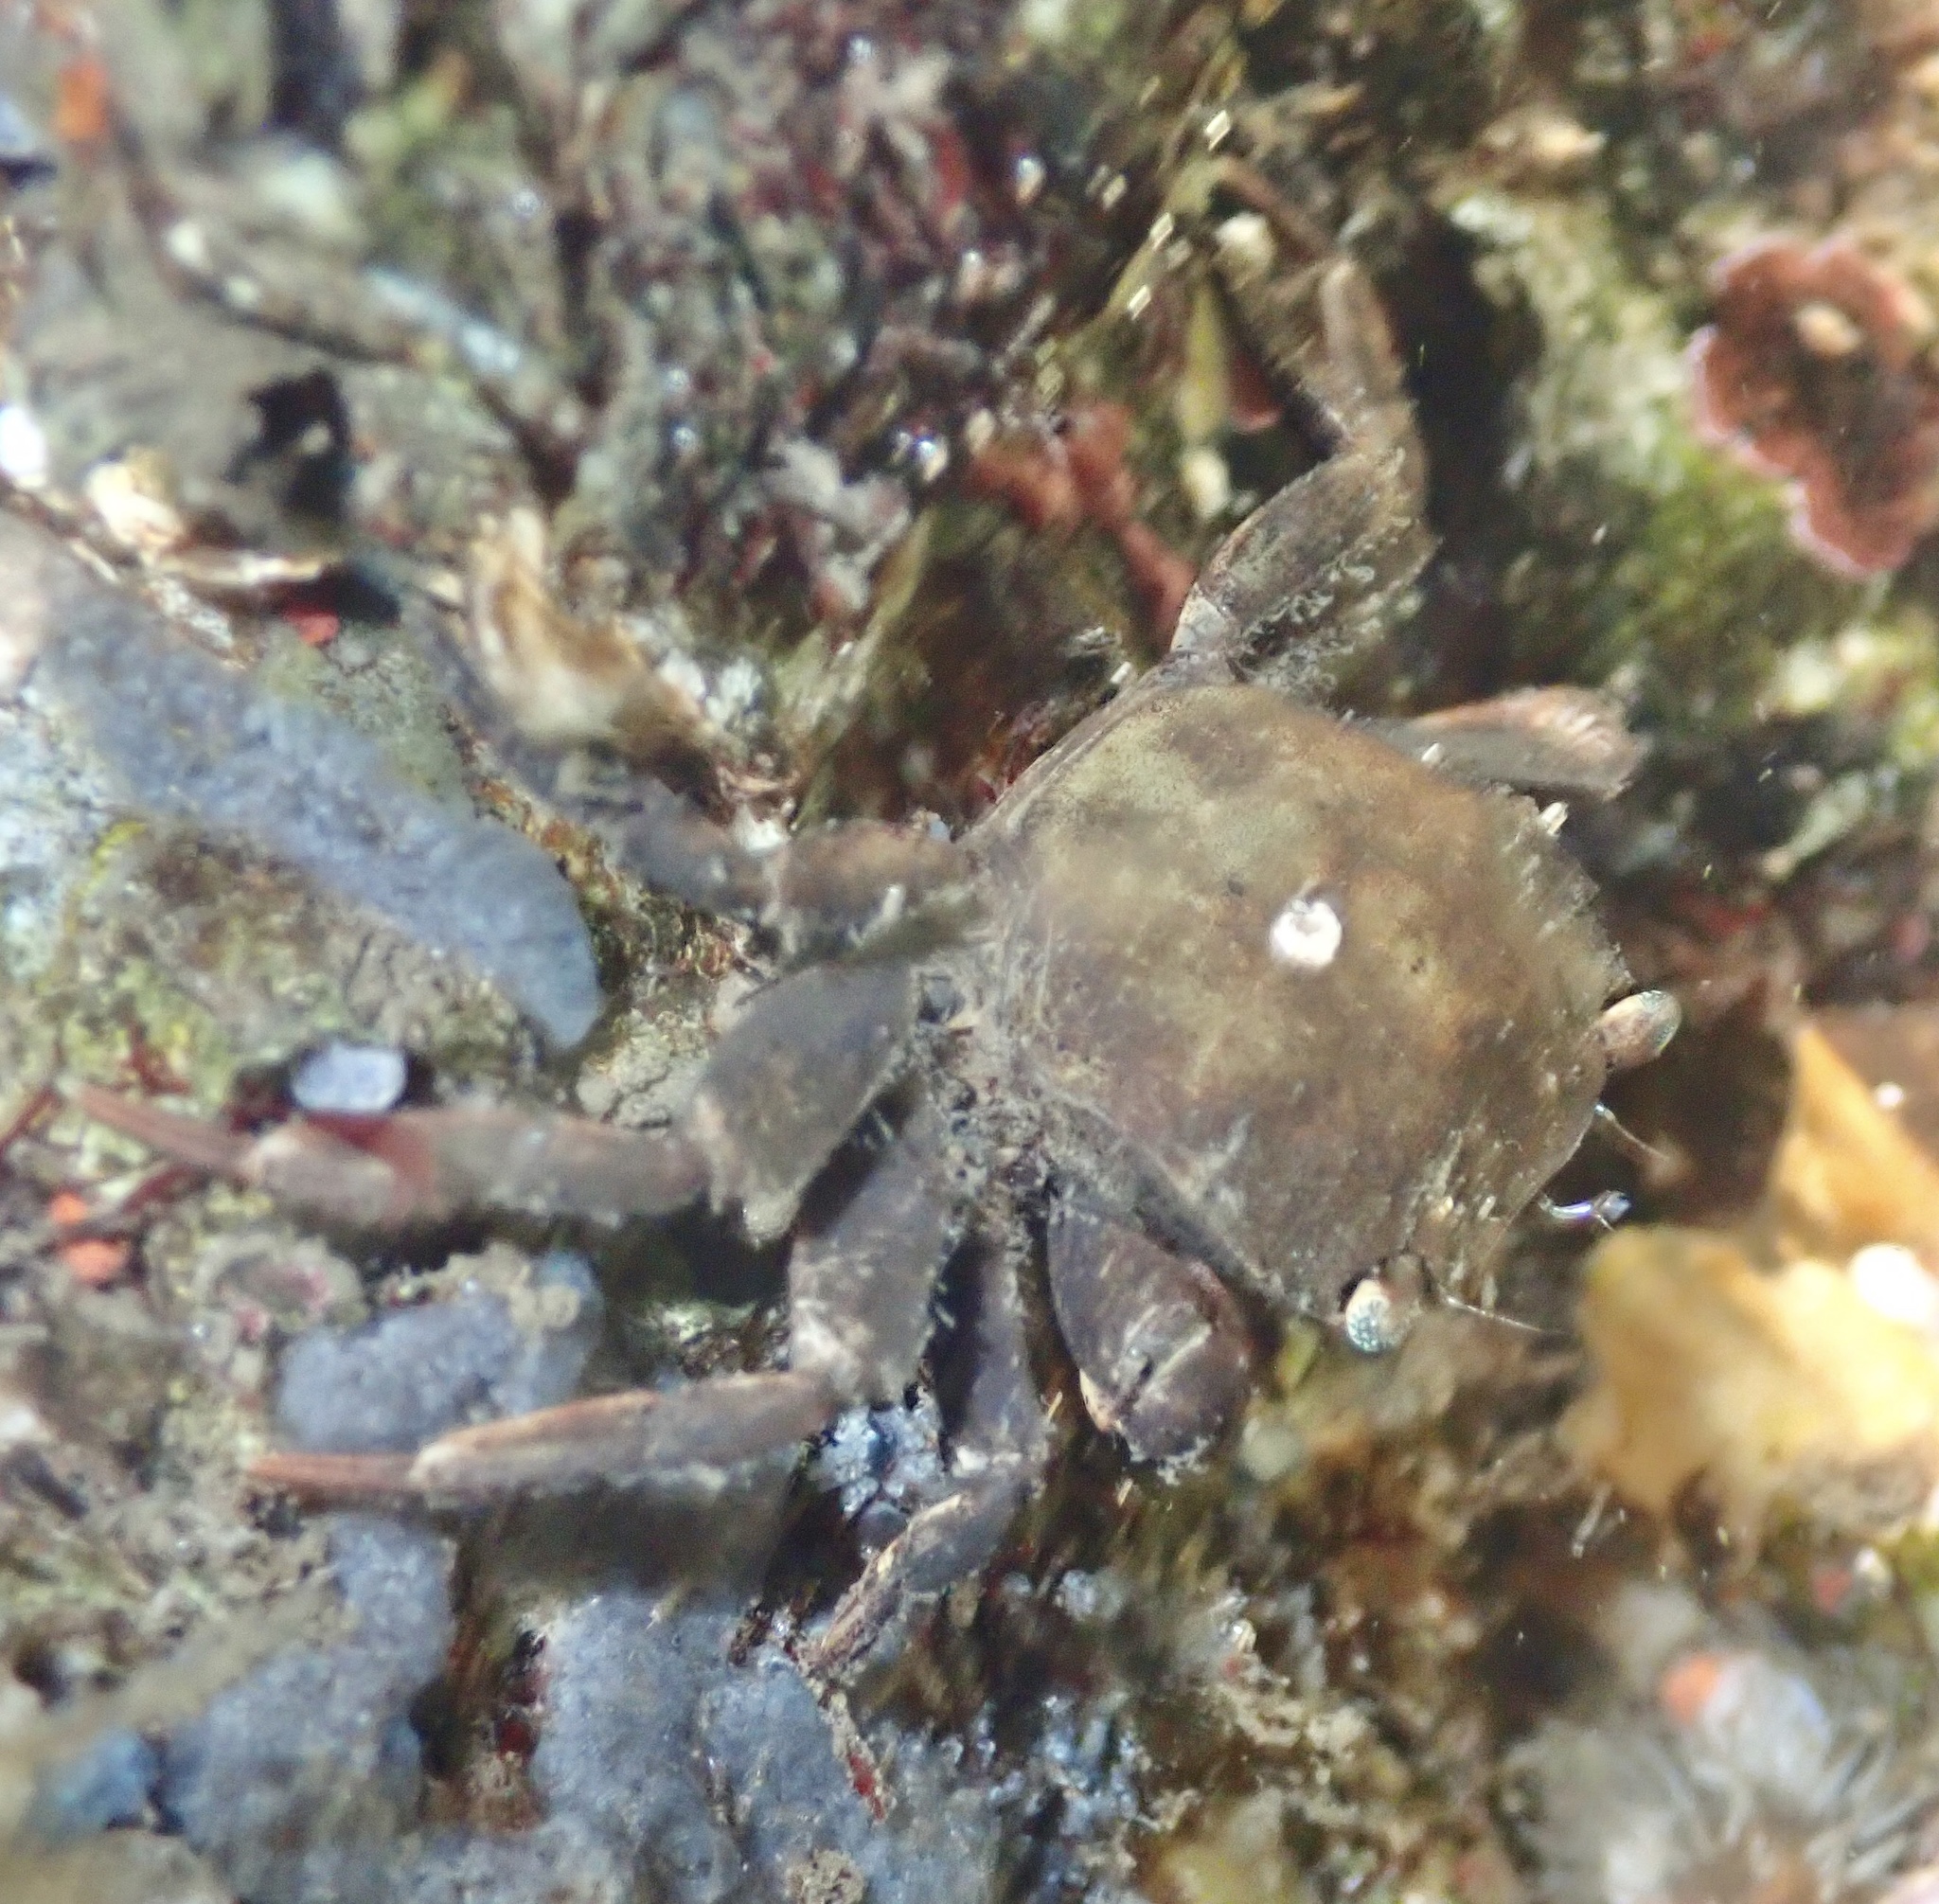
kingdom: Animalia
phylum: Arthropoda
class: Malacostraca
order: Decapoda
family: Varunidae
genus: Hemigrapsus
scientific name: Hemigrapsus takanoi
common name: Asian brush crab
